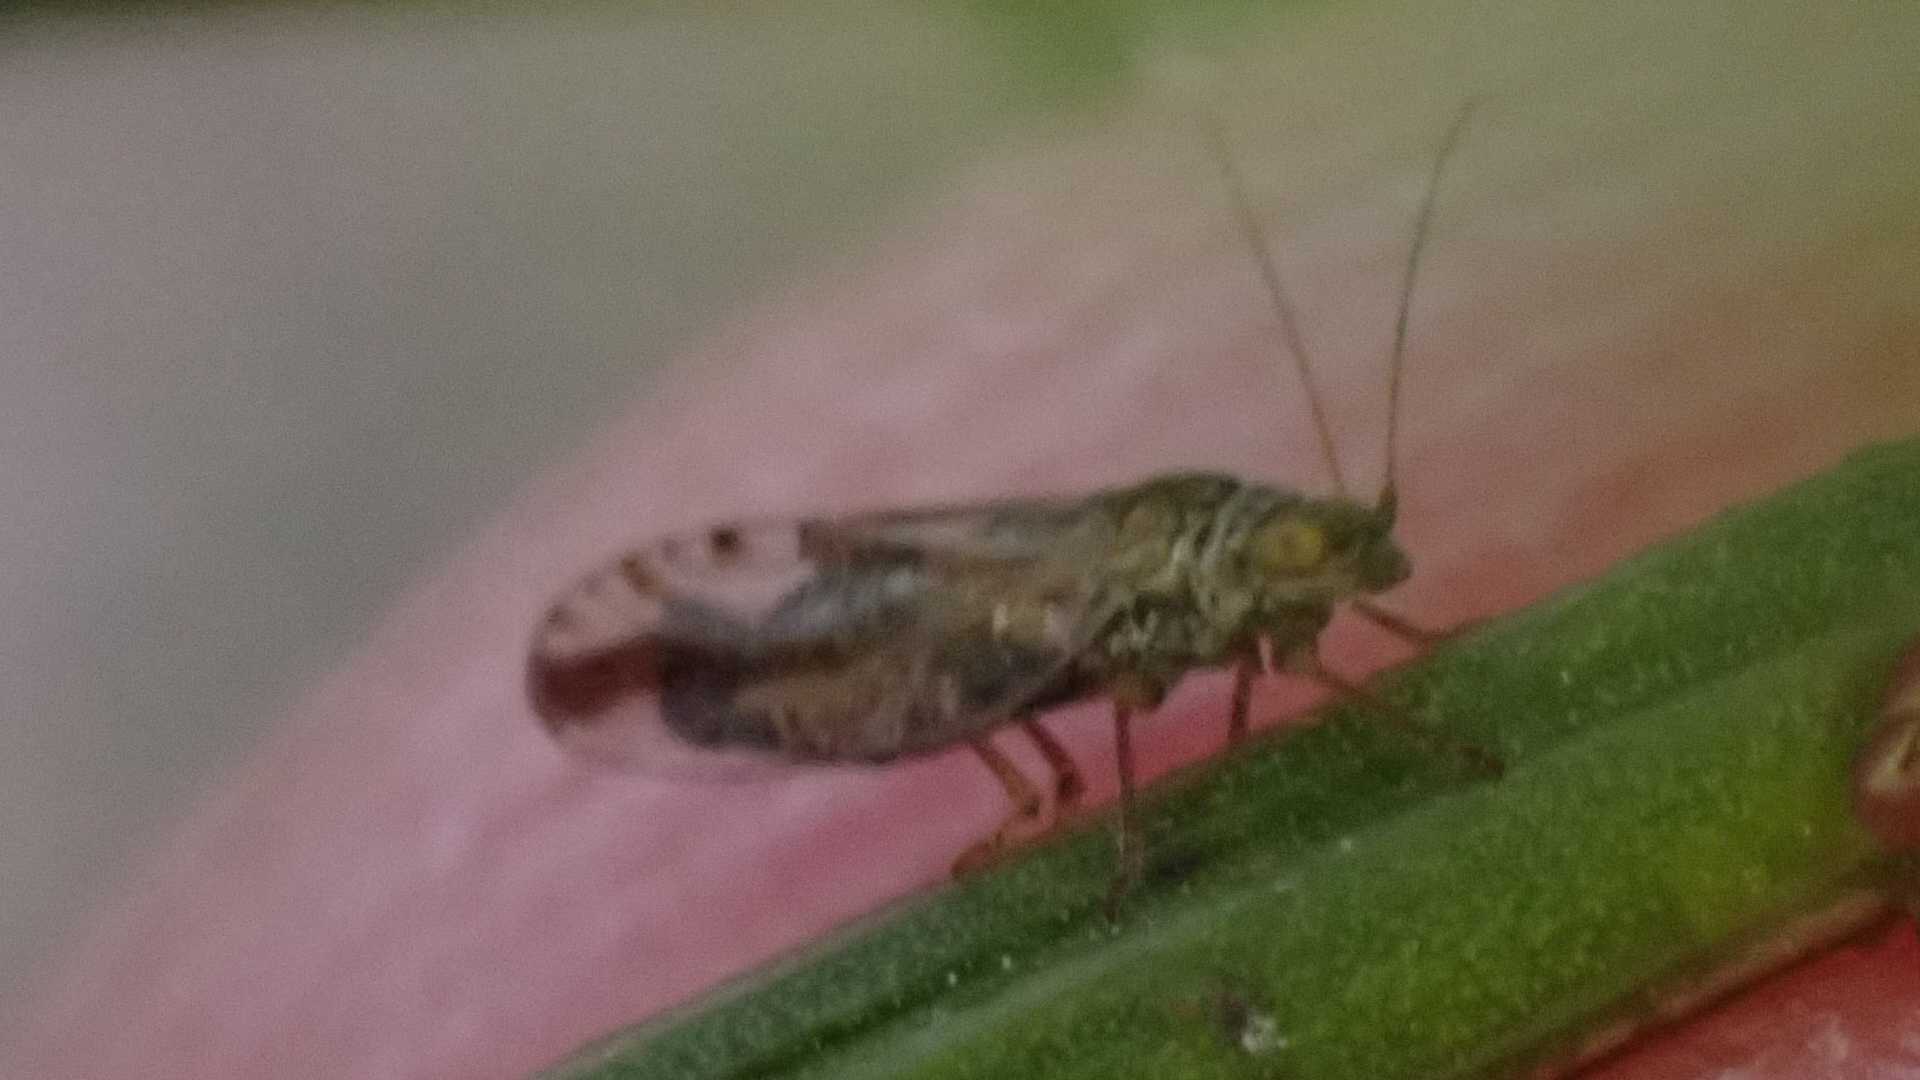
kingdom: Animalia
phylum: Arthropoda
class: Insecta
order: Hemiptera
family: Psyllidae
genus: Arytaina
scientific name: Arytaina genistae
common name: Psyllid
